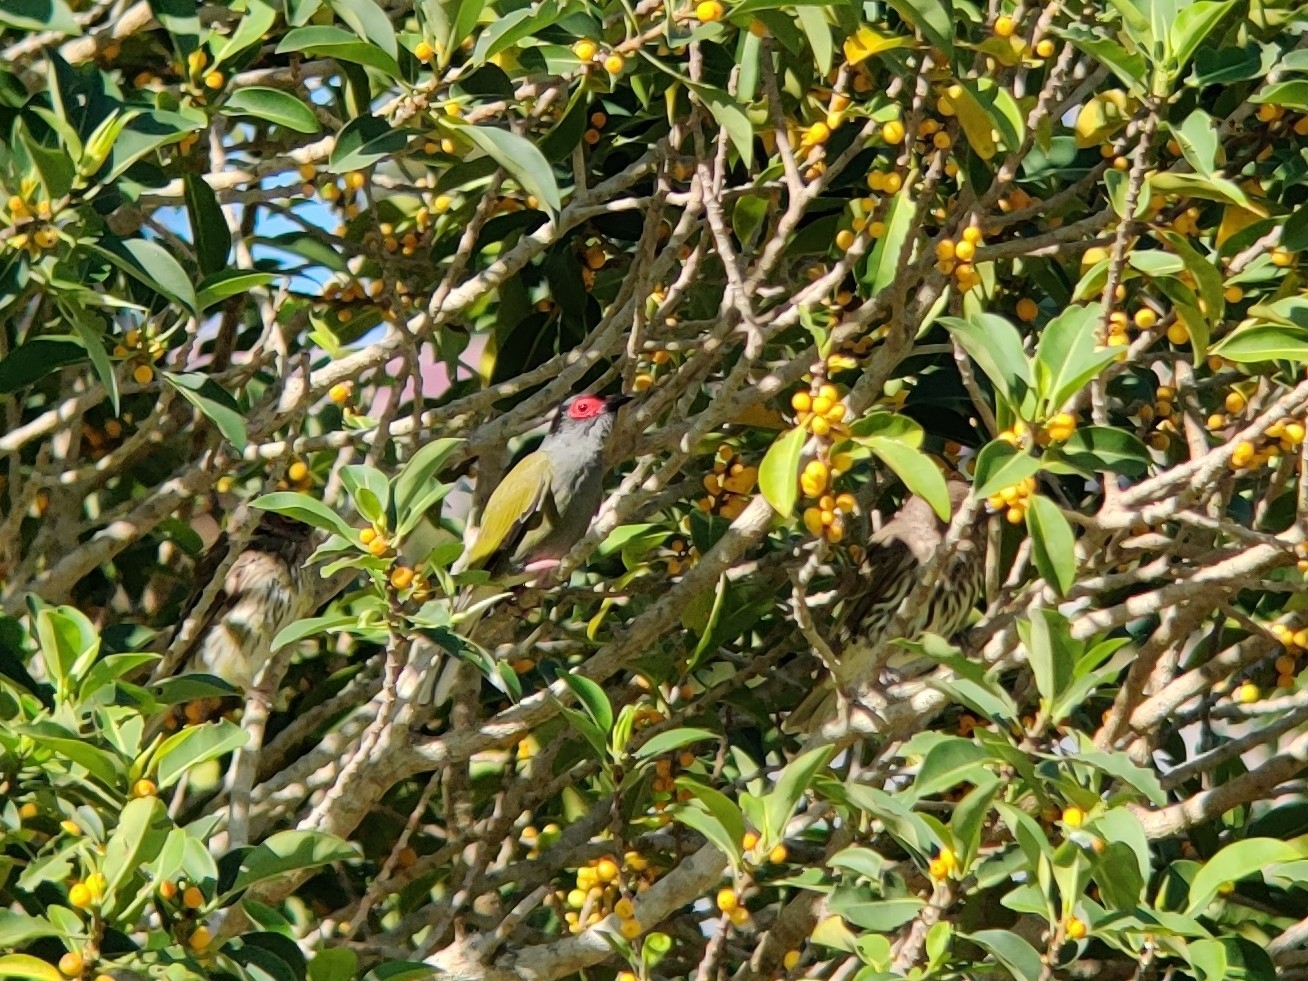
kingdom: Animalia
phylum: Chordata
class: Aves
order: Passeriformes
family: Oriolidae
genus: Sphecotheres
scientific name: Sphecotheres vieilloti
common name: Australasian figbird
